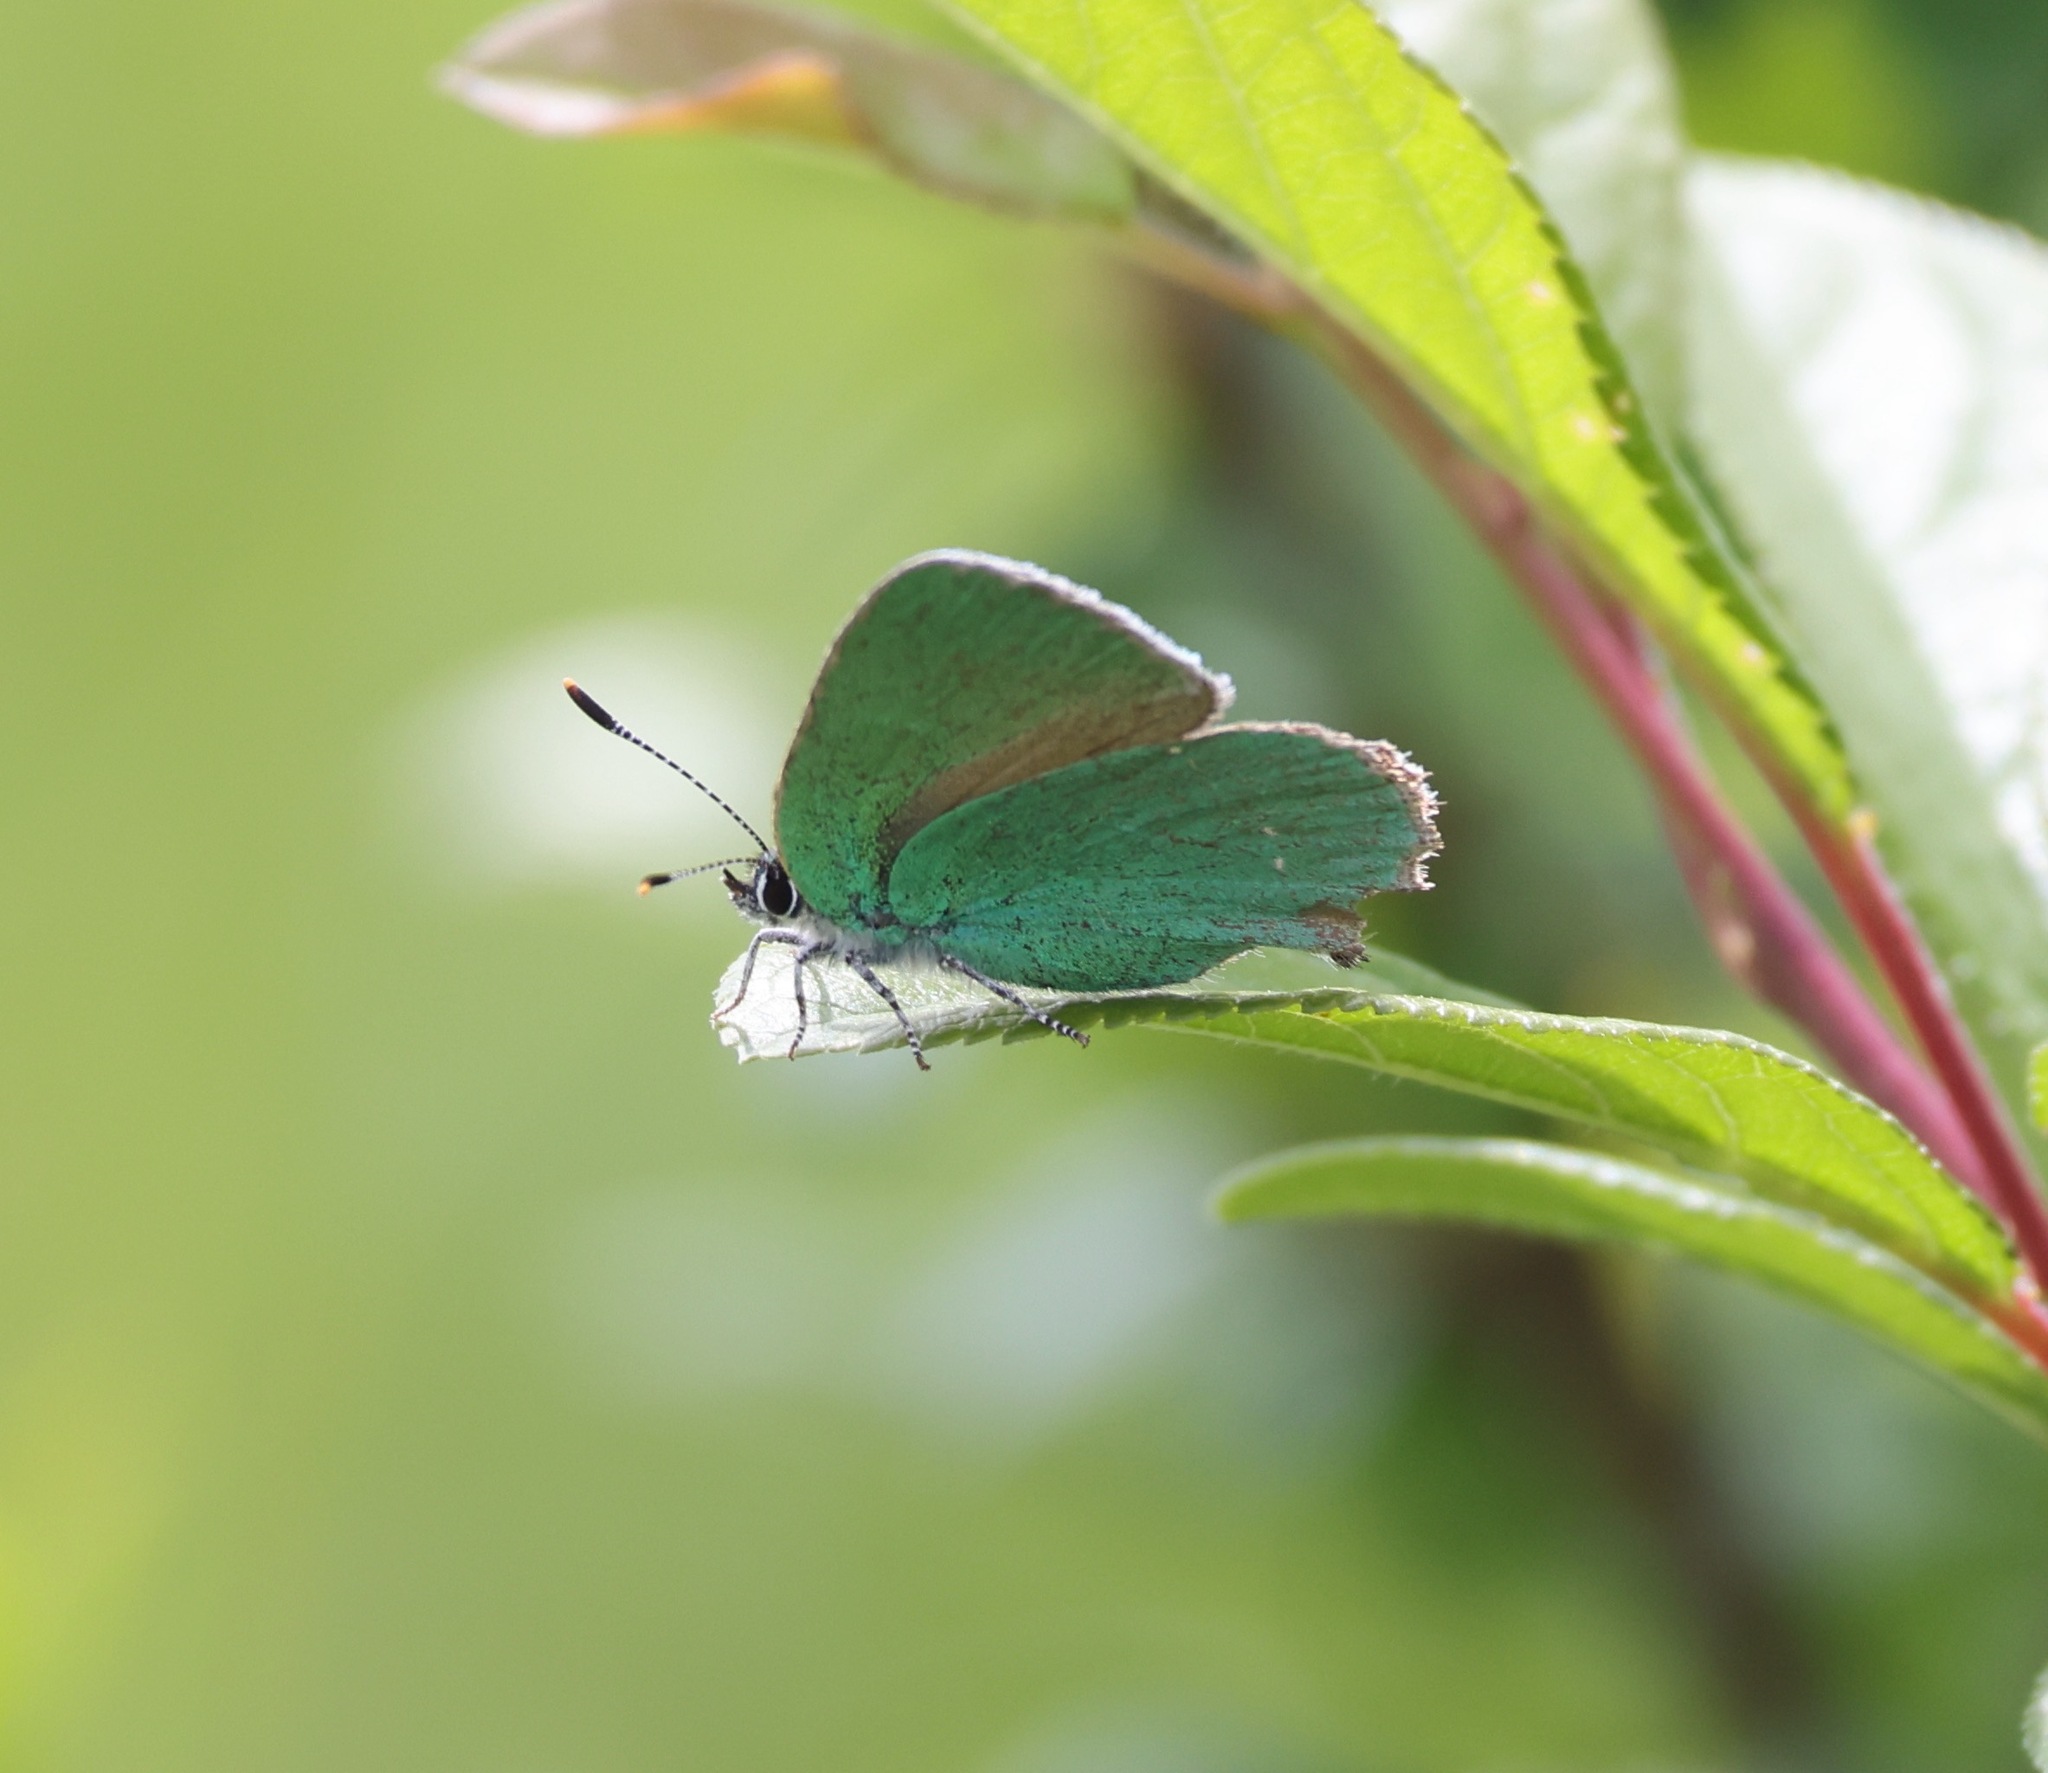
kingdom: Animalia
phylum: Arthropoda
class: Insecta
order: Lepidoptera
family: Lycaenidae
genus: Callophrys
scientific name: Callophrys rubi
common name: Green hairstreak
